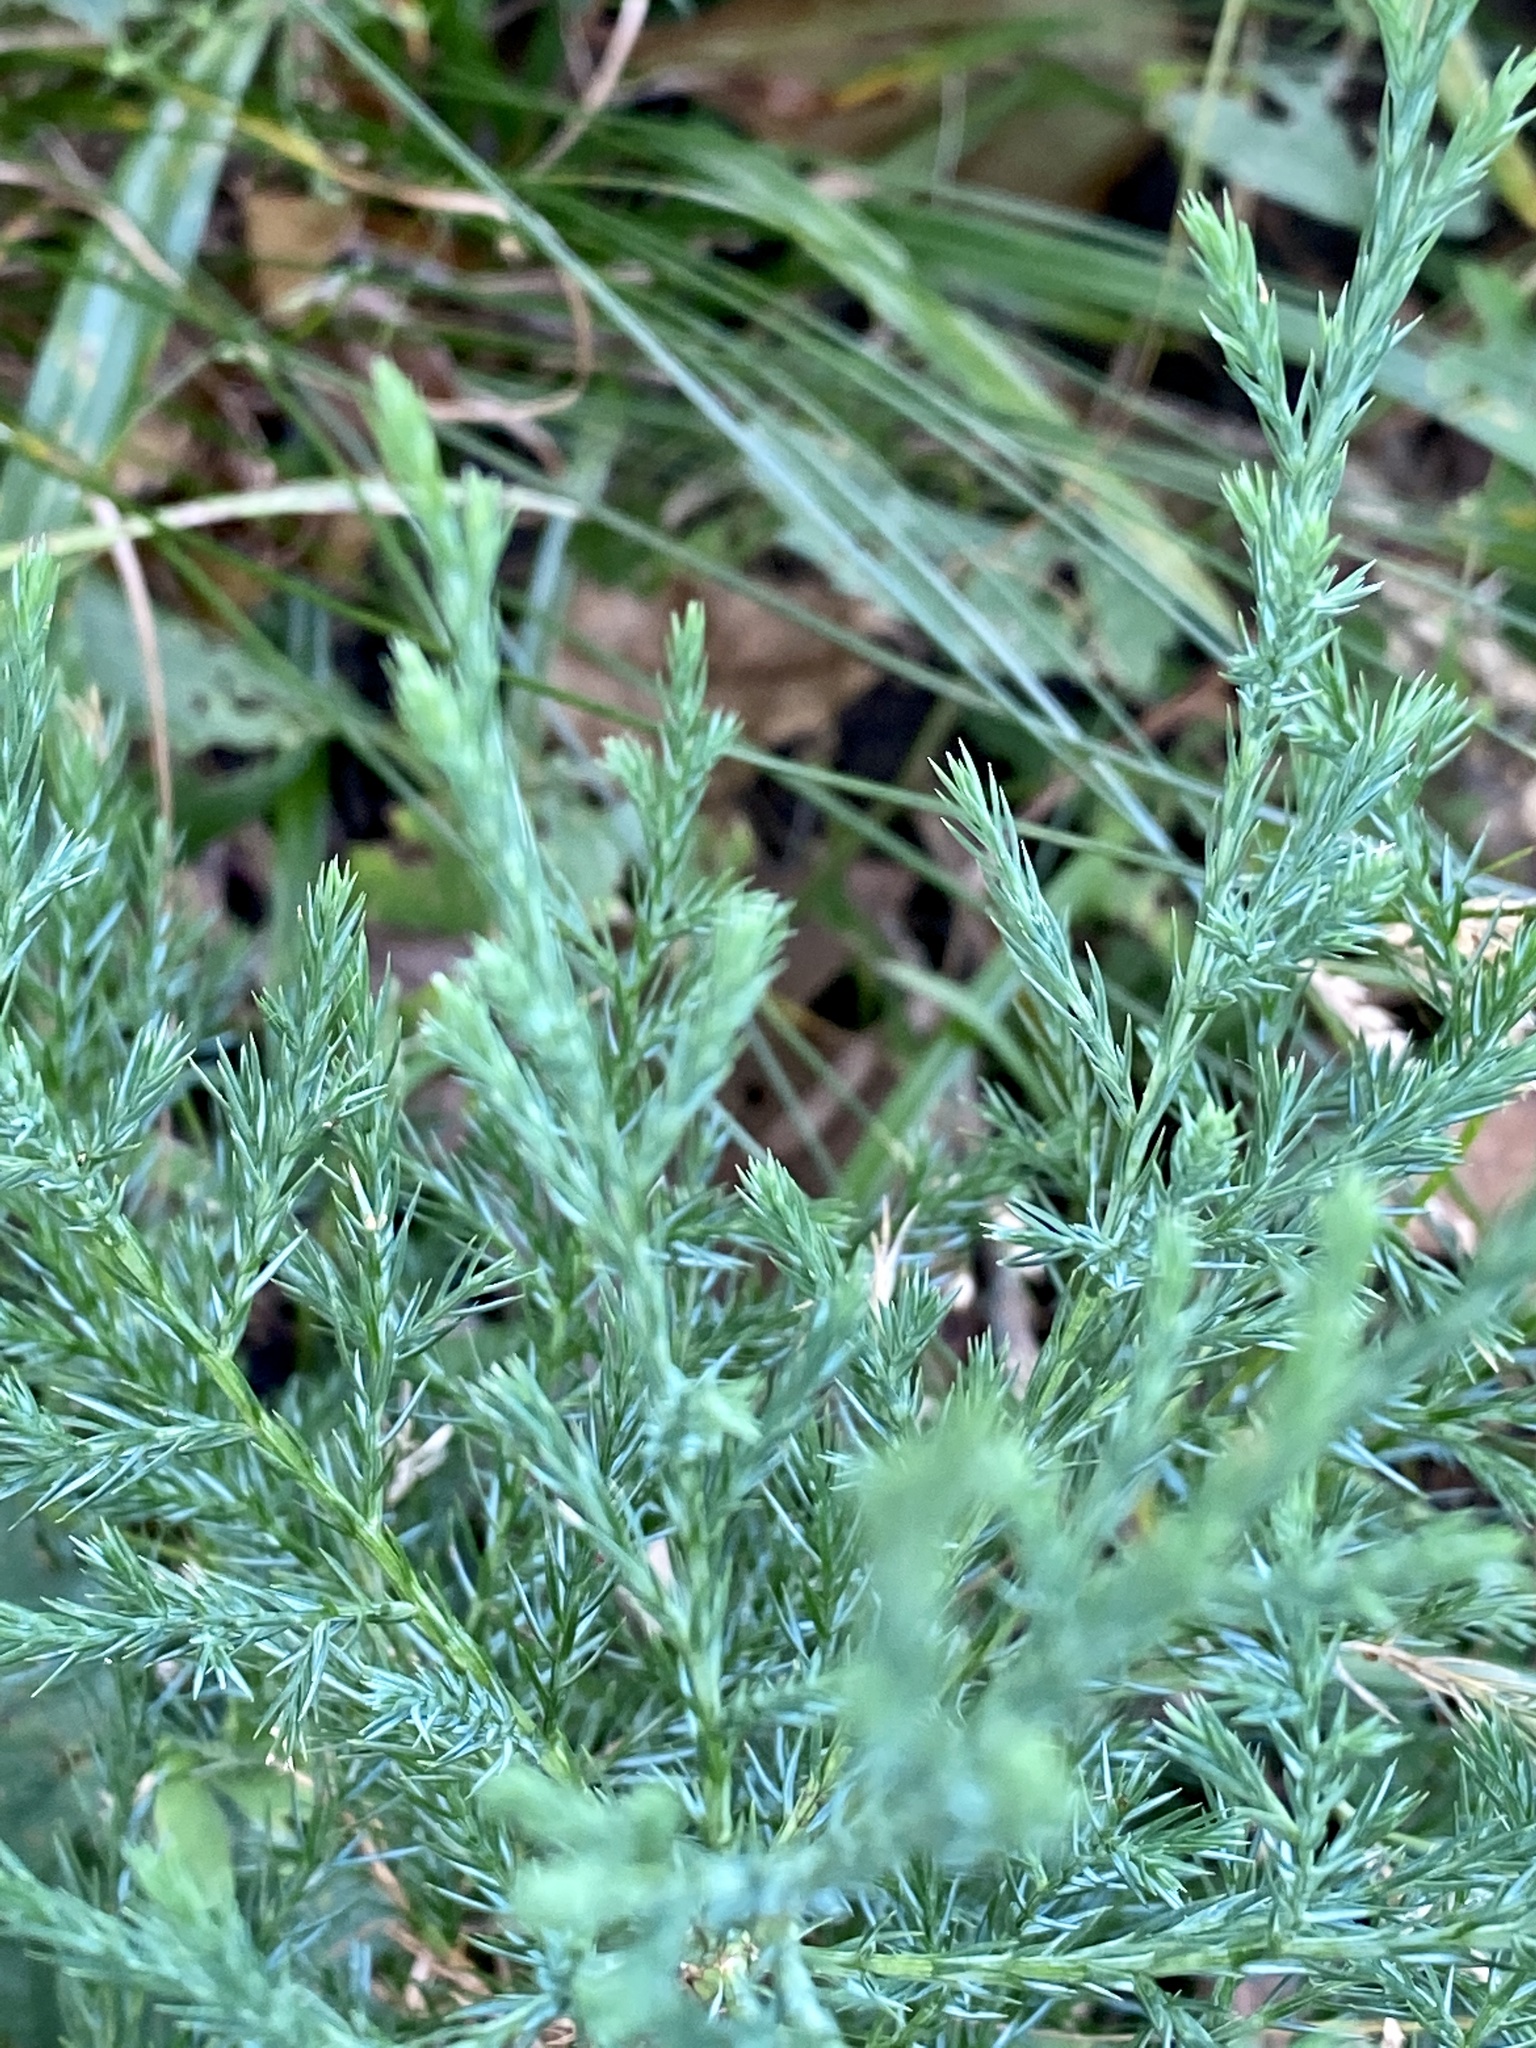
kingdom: Plantae
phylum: Tracheophyta
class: Pinopsida
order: Pinales
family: Cupressaceae
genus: Juniperus
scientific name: Juniperus virginiana
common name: Red juniper
